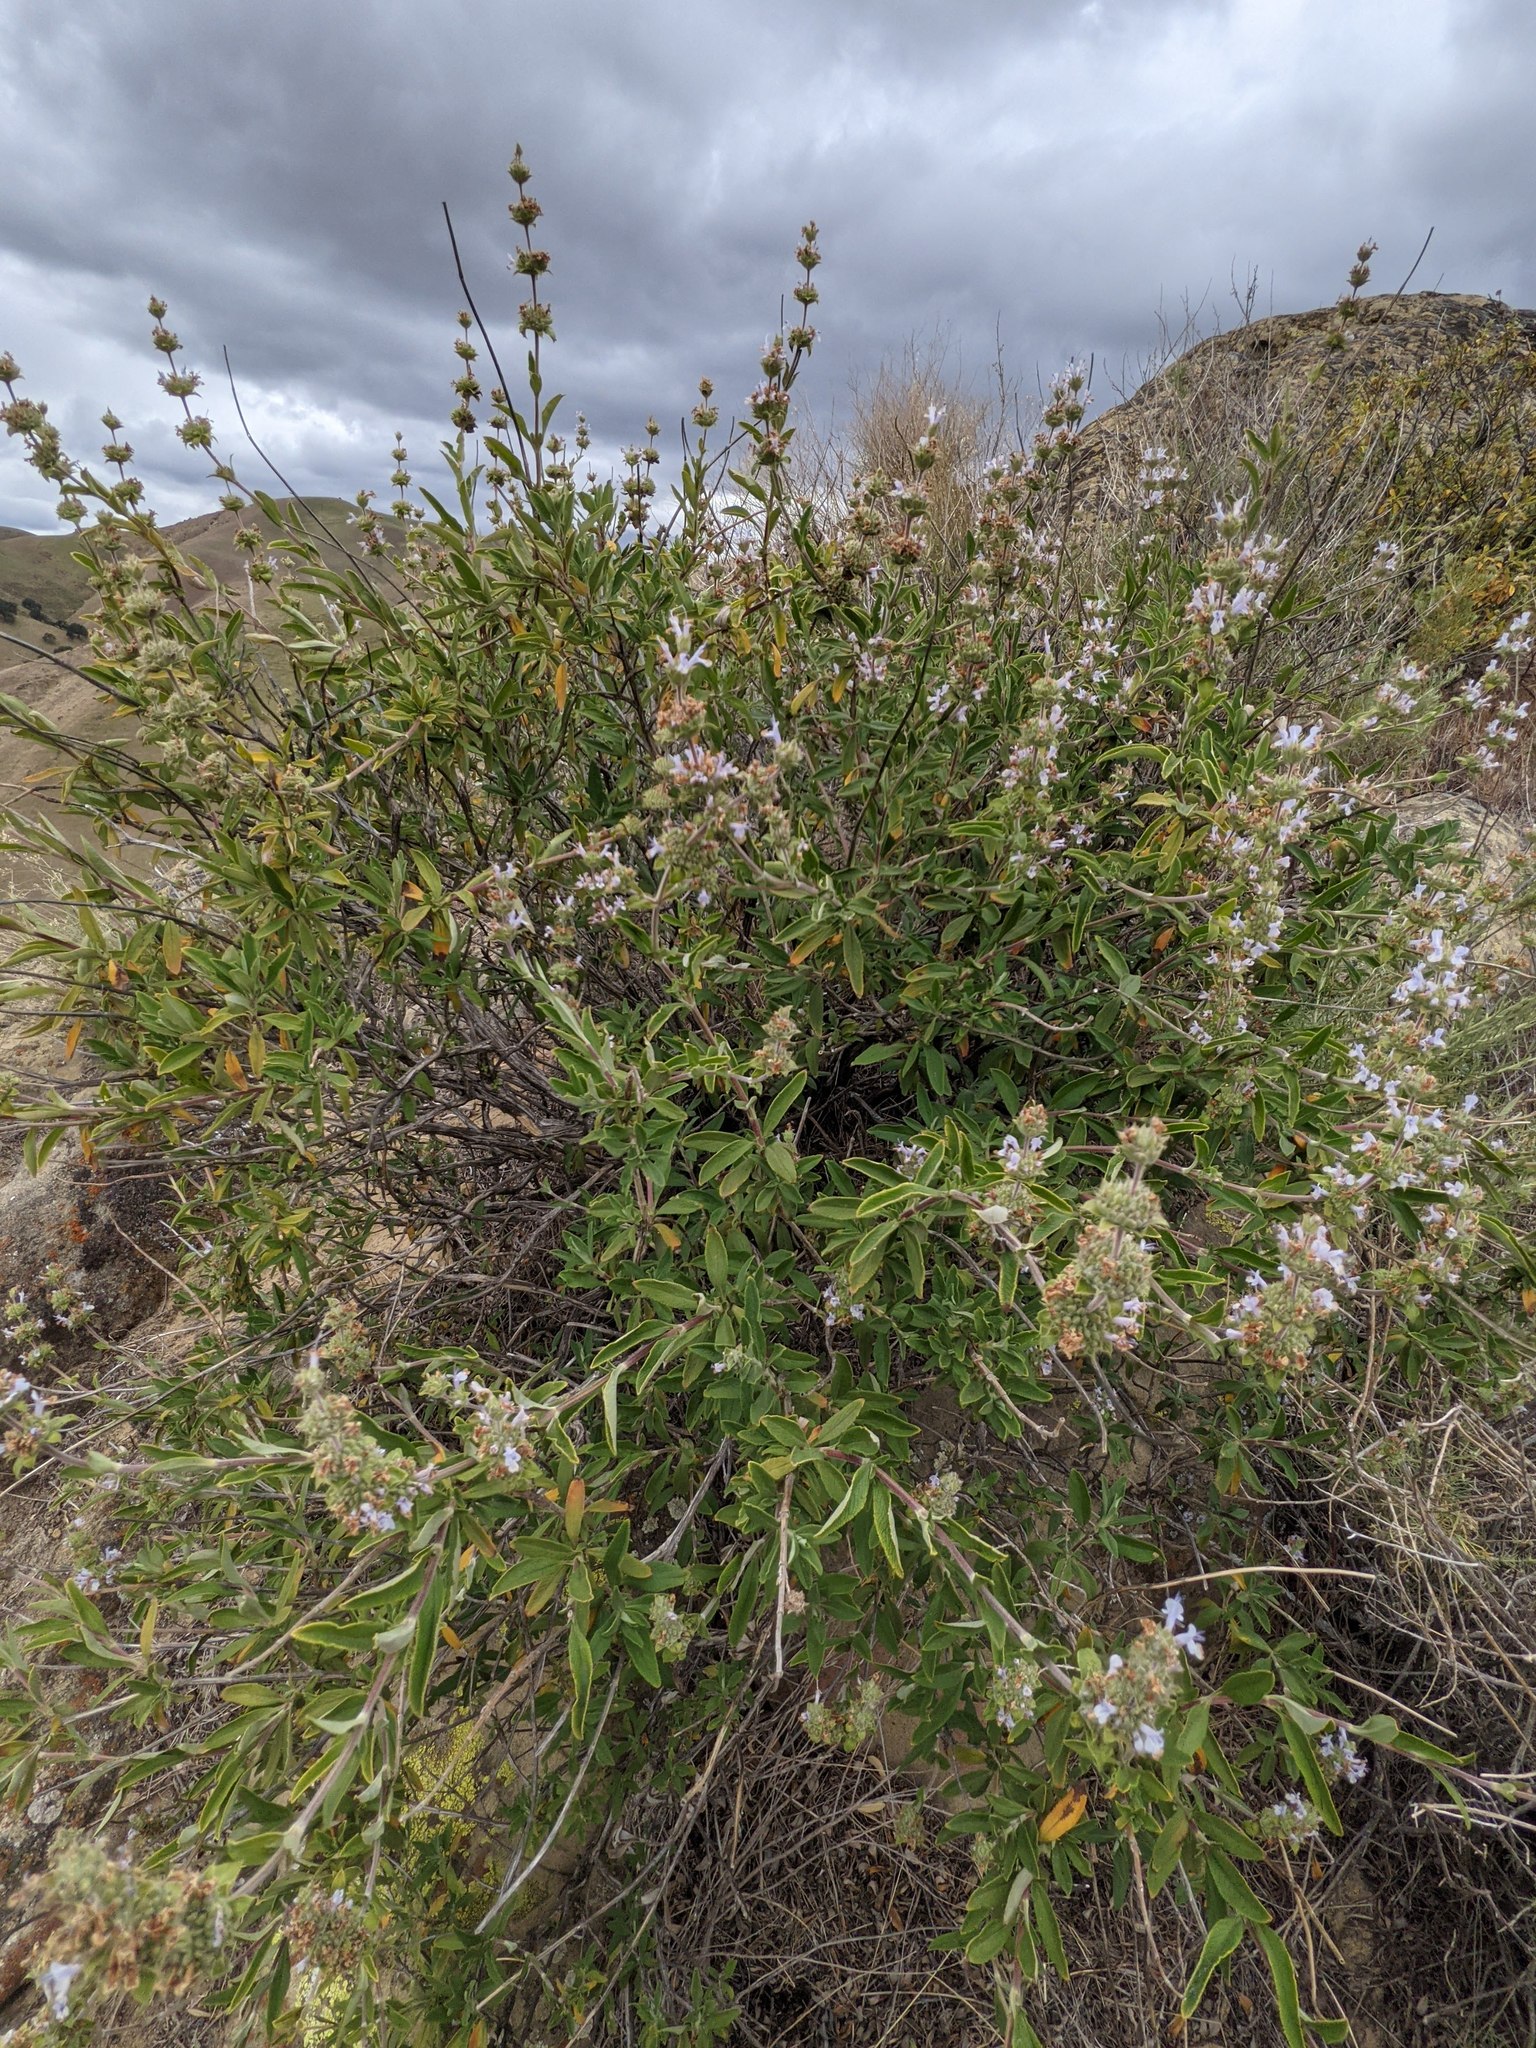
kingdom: Plantae
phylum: Tracheophyta
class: Magnoliopsida
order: Lamiales
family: Lamiaceae
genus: Salvia
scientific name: Salvia mellifera
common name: Black sage
